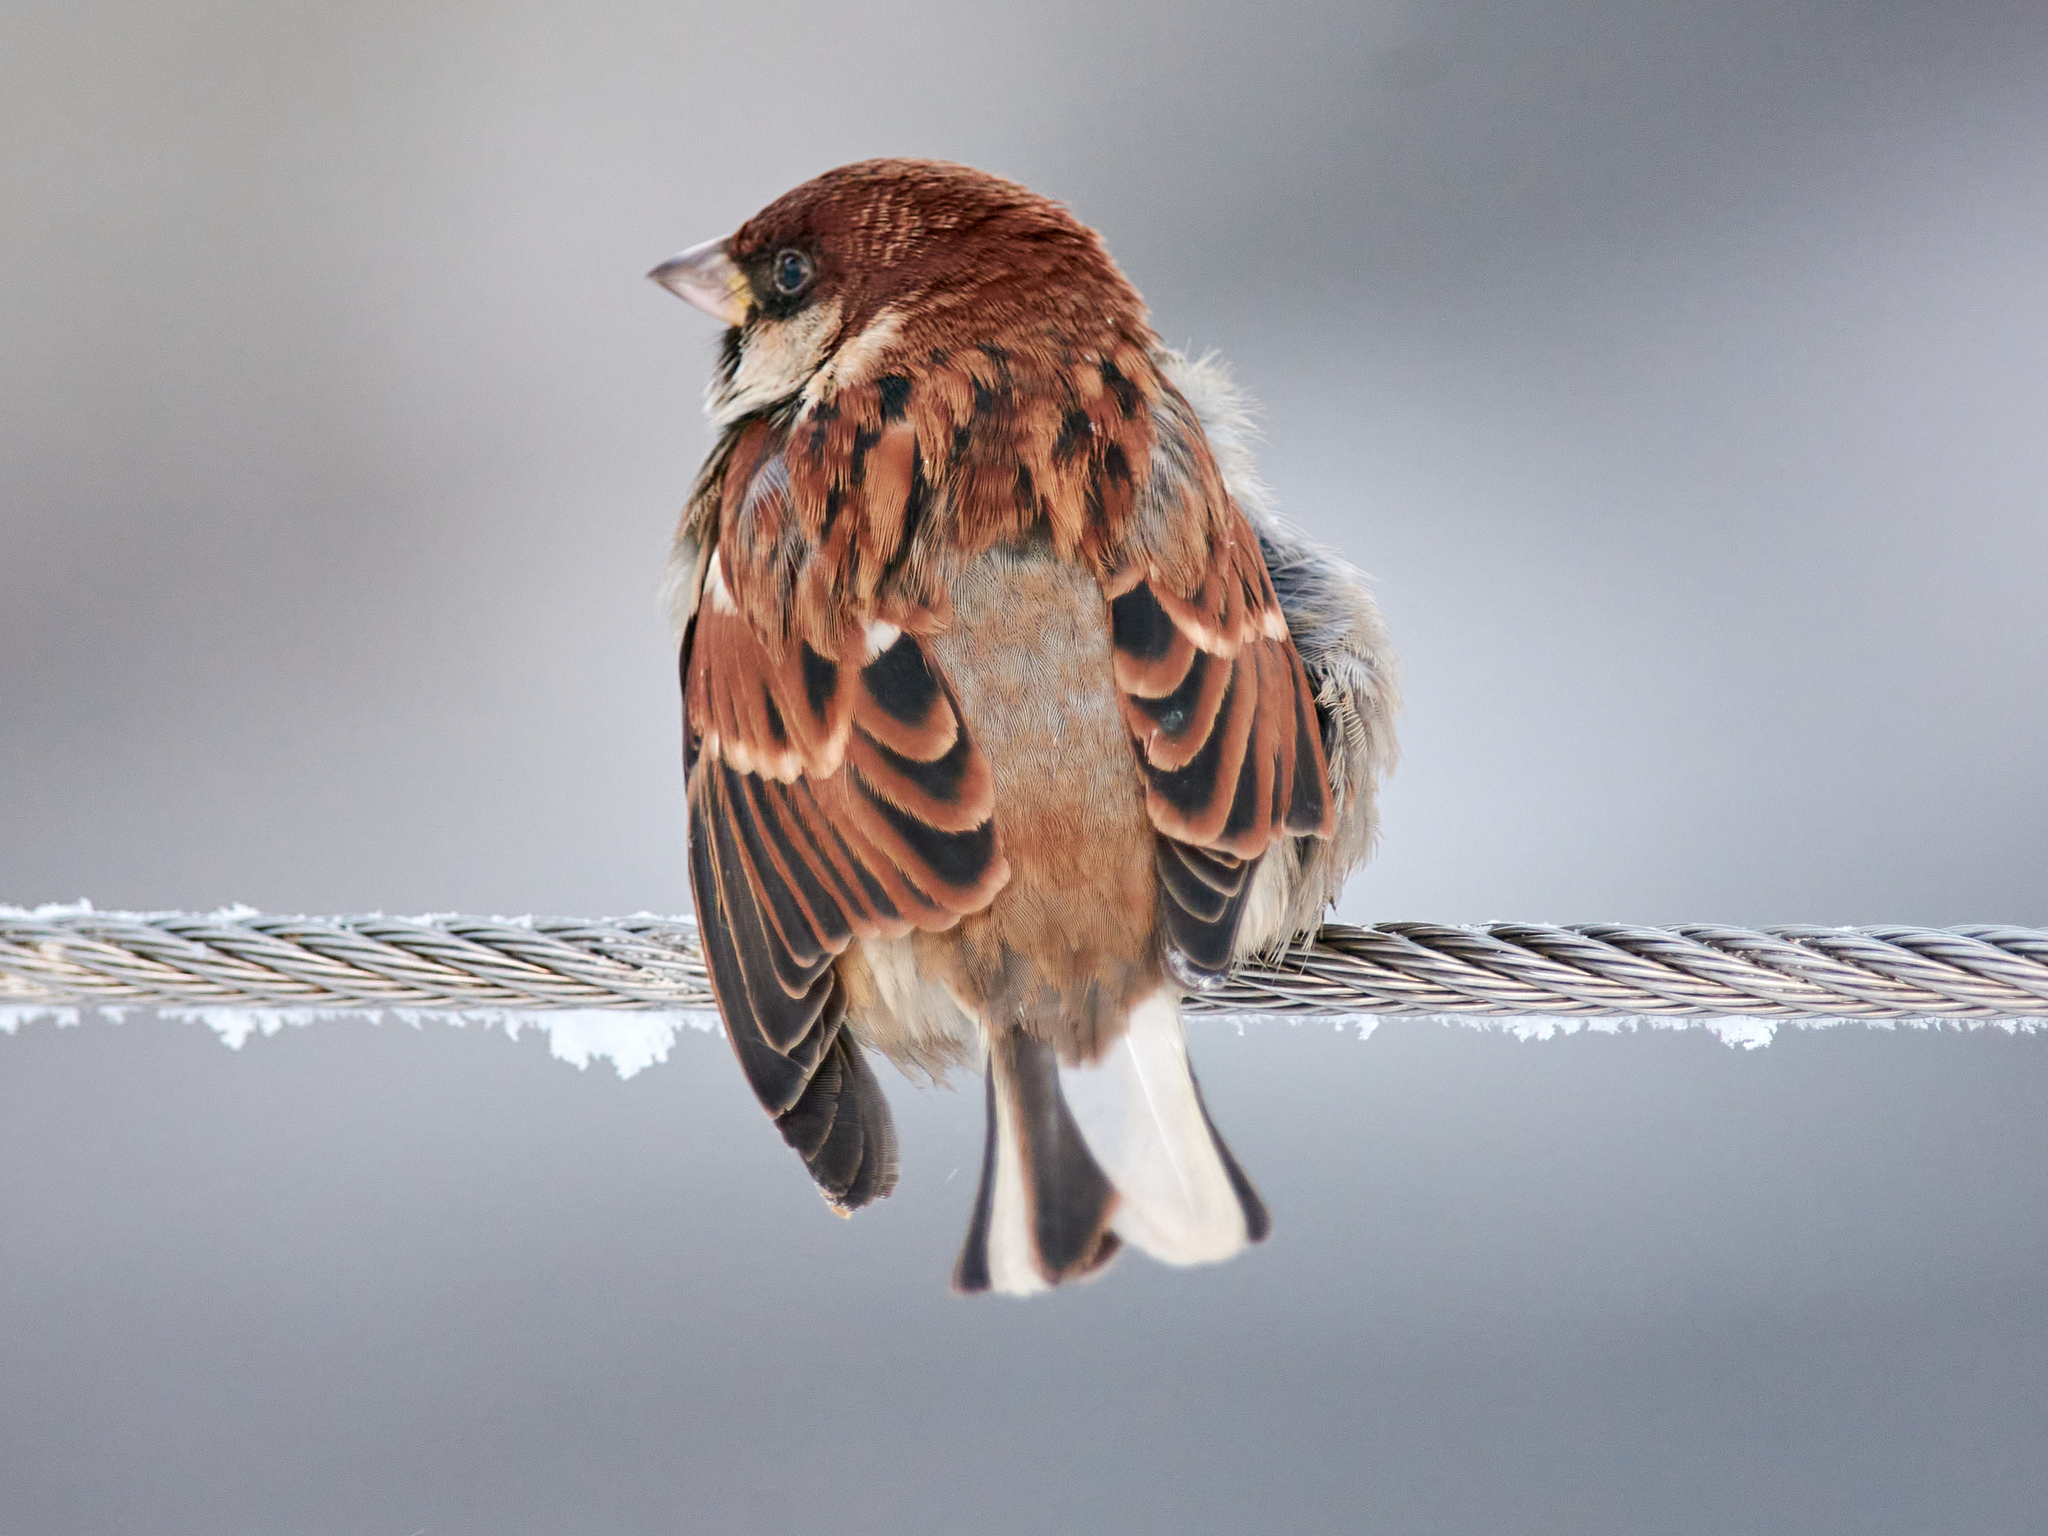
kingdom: Animalia
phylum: Chordata
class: Aves
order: Passeriformes
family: Passeridae
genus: Passer
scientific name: Passer
